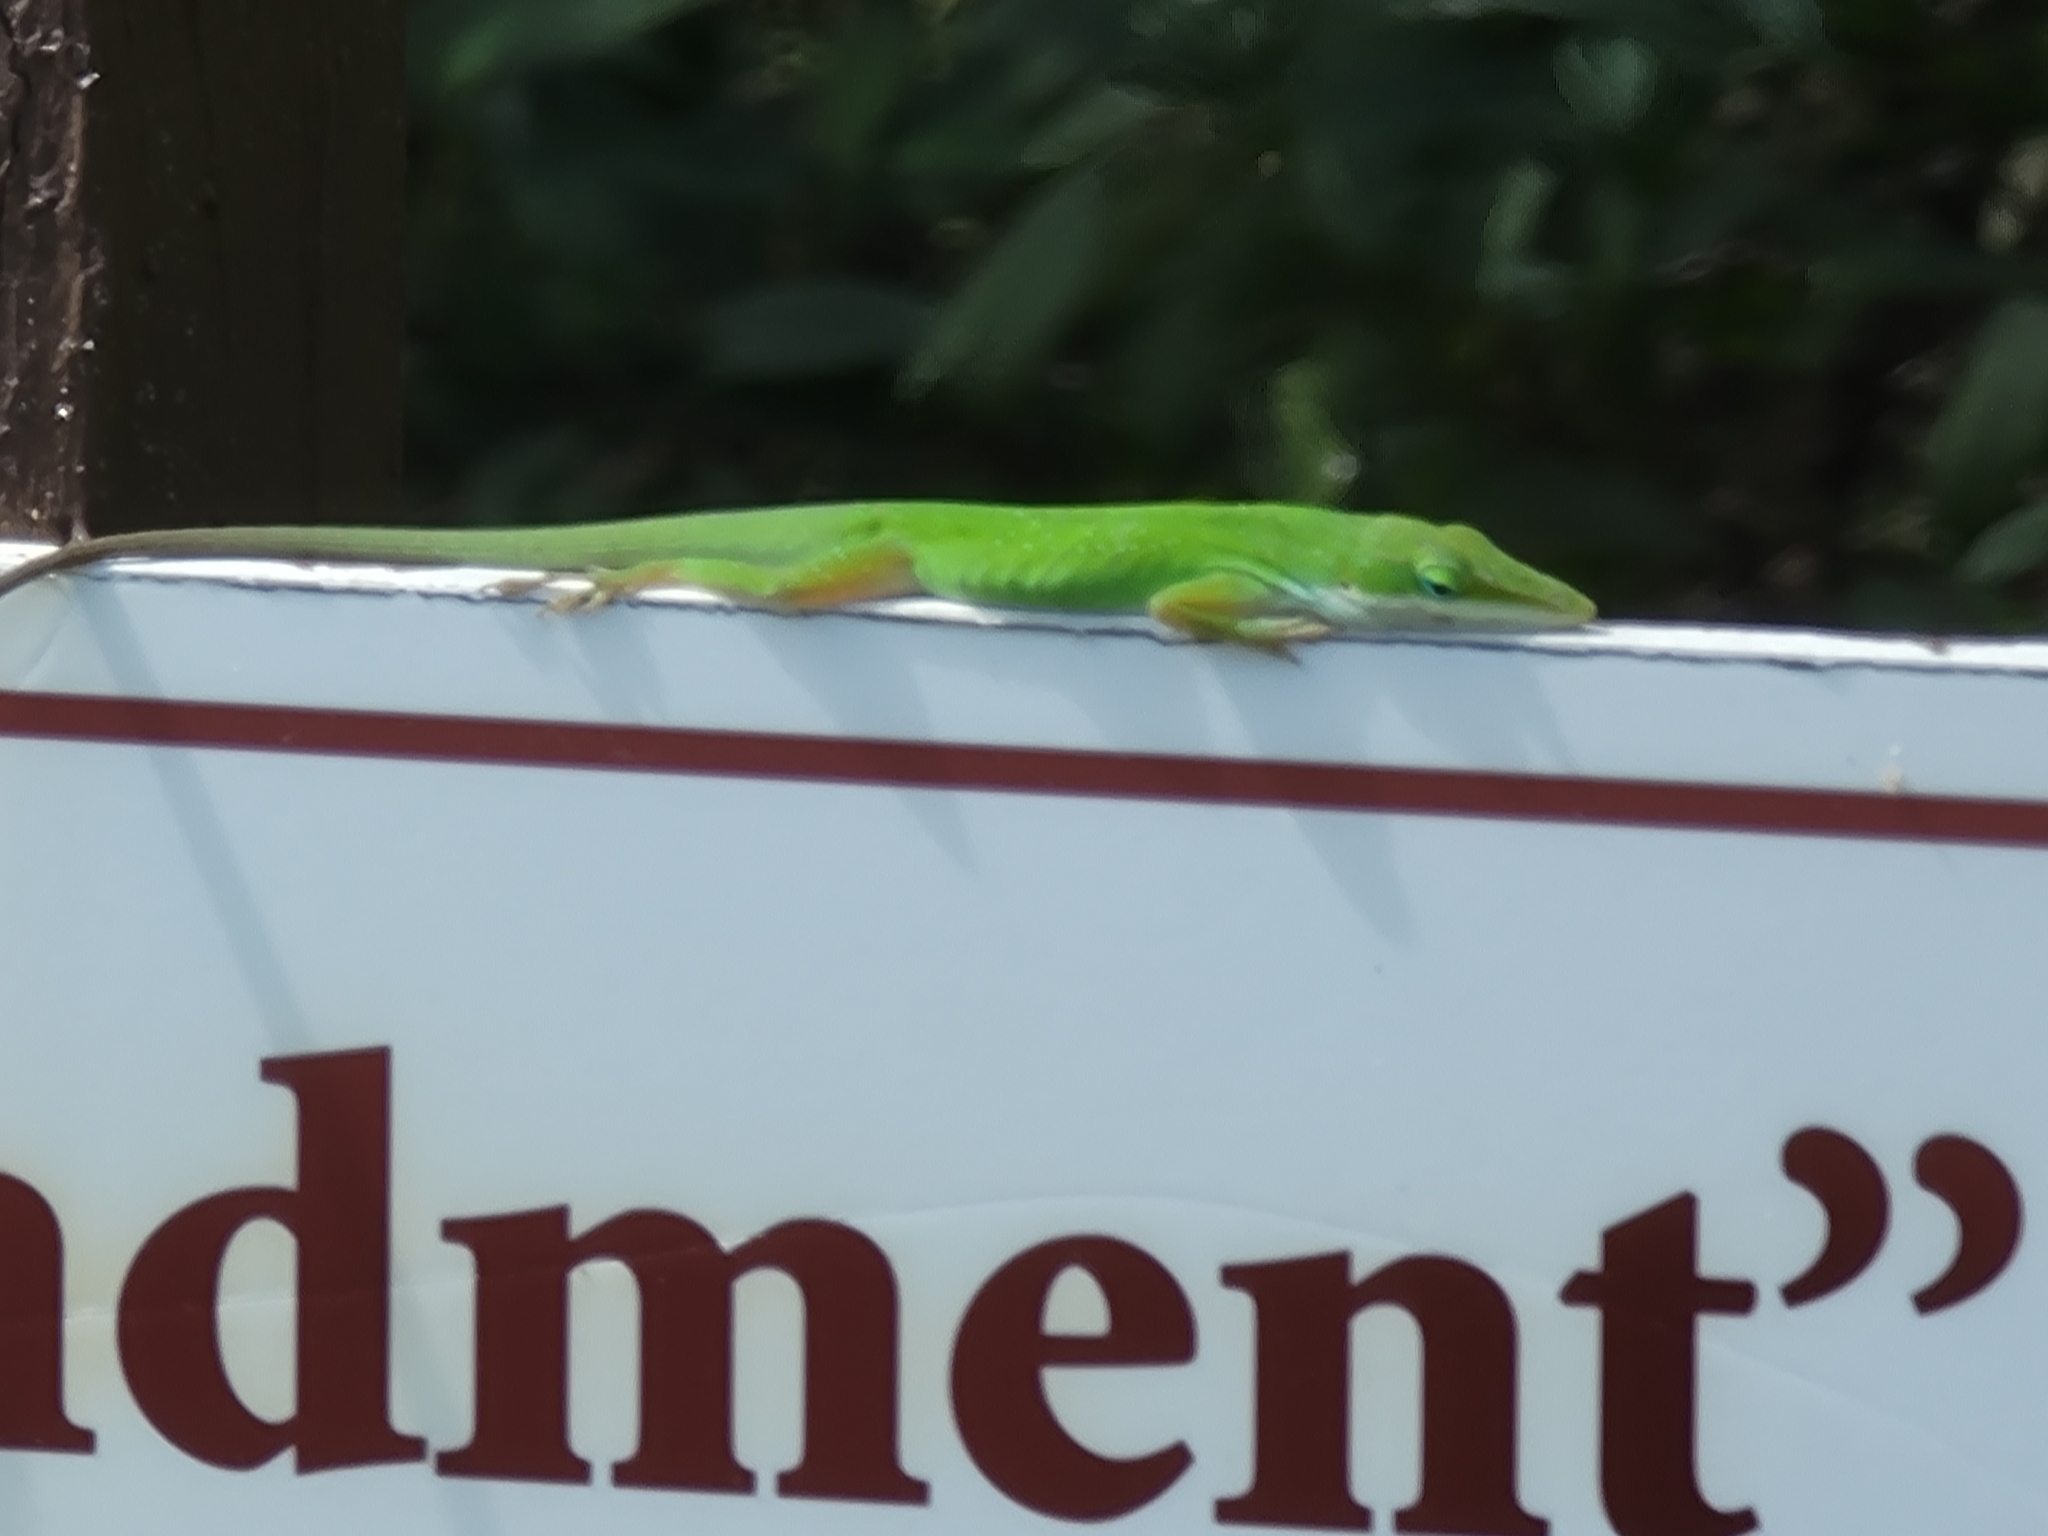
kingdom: Animalia
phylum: Chordata
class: Squamata
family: Dactyloidae
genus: Anolis
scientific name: Anolis carolinensis
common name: Green anole
